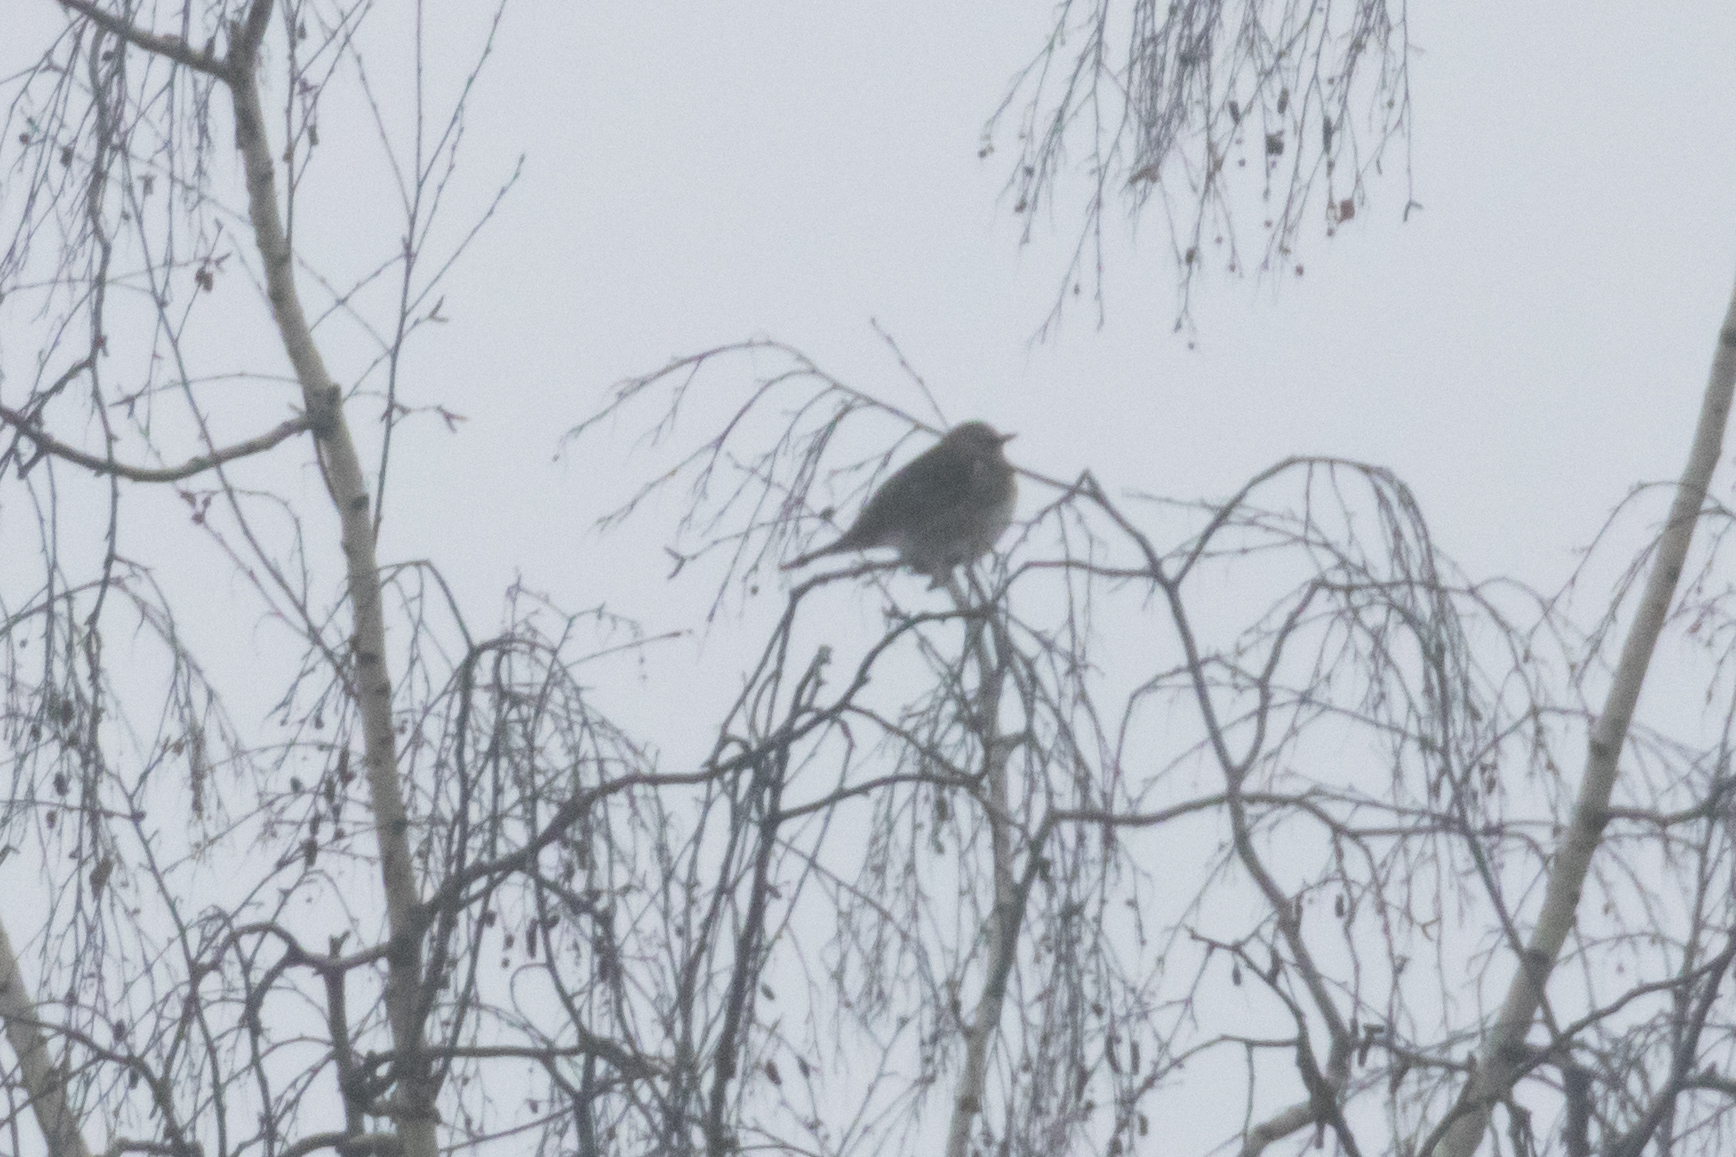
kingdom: Animalia
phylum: Chordata
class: Aves
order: Passeriformes
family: Turdidae
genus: Turdus
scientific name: Turdus pilaris
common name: Fieldfare
